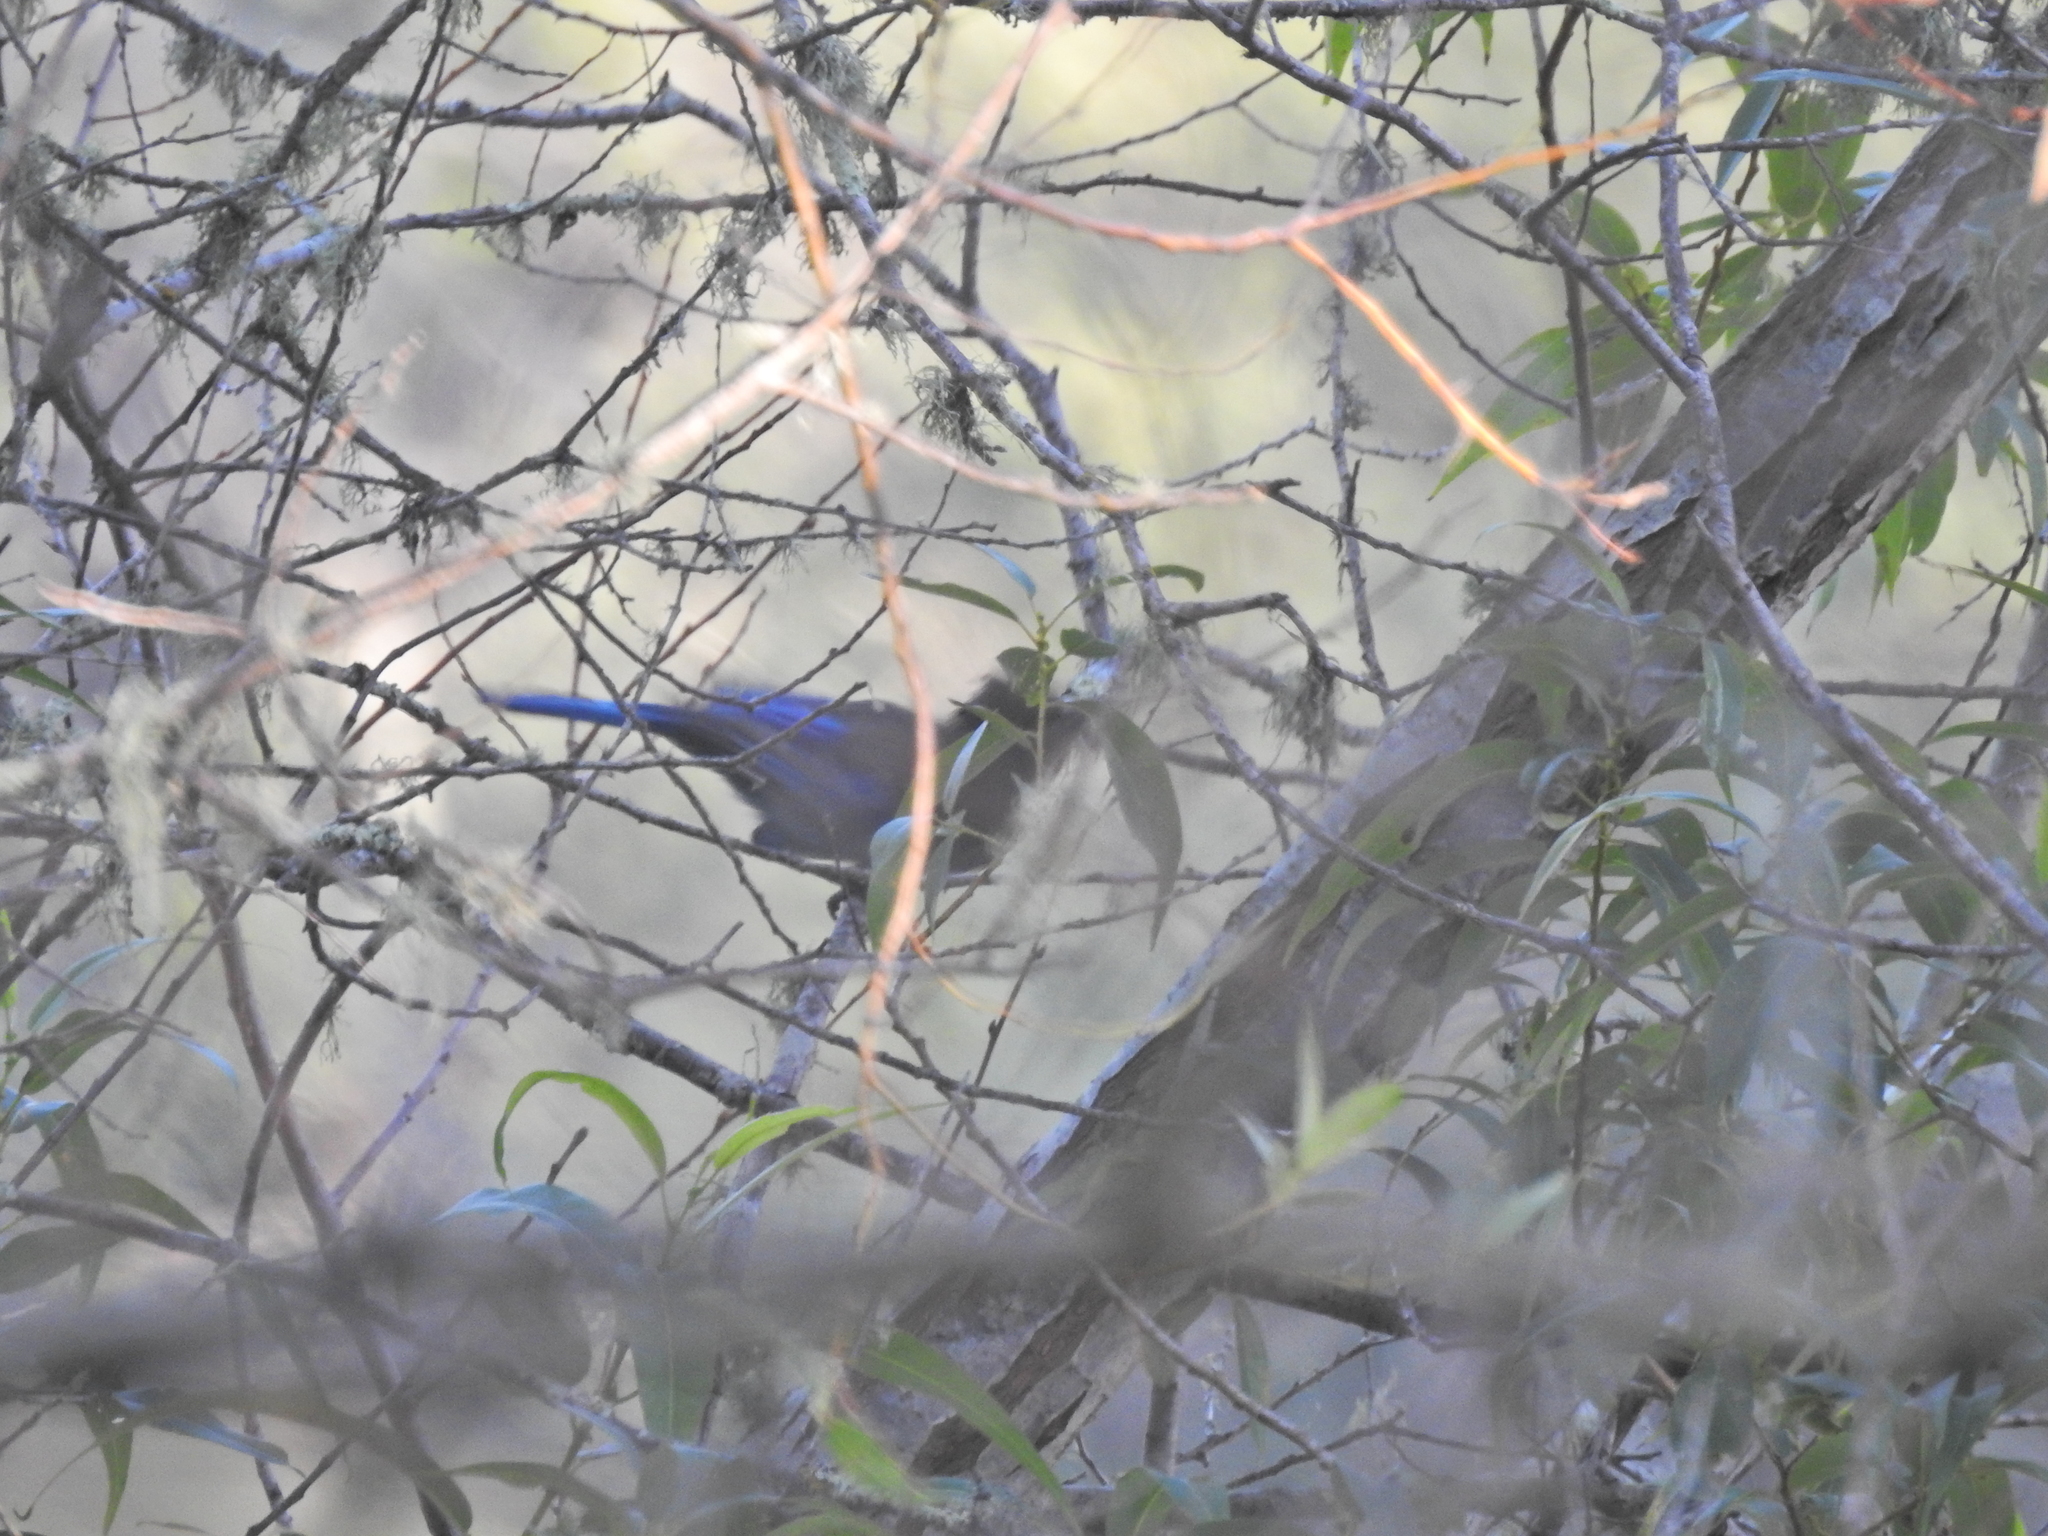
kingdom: Animalia
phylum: Chordata
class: Aves
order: Passeriformes
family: Corvidae
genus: Cyanocitta
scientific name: Cyanocitta stelleri
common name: Steller's jay
